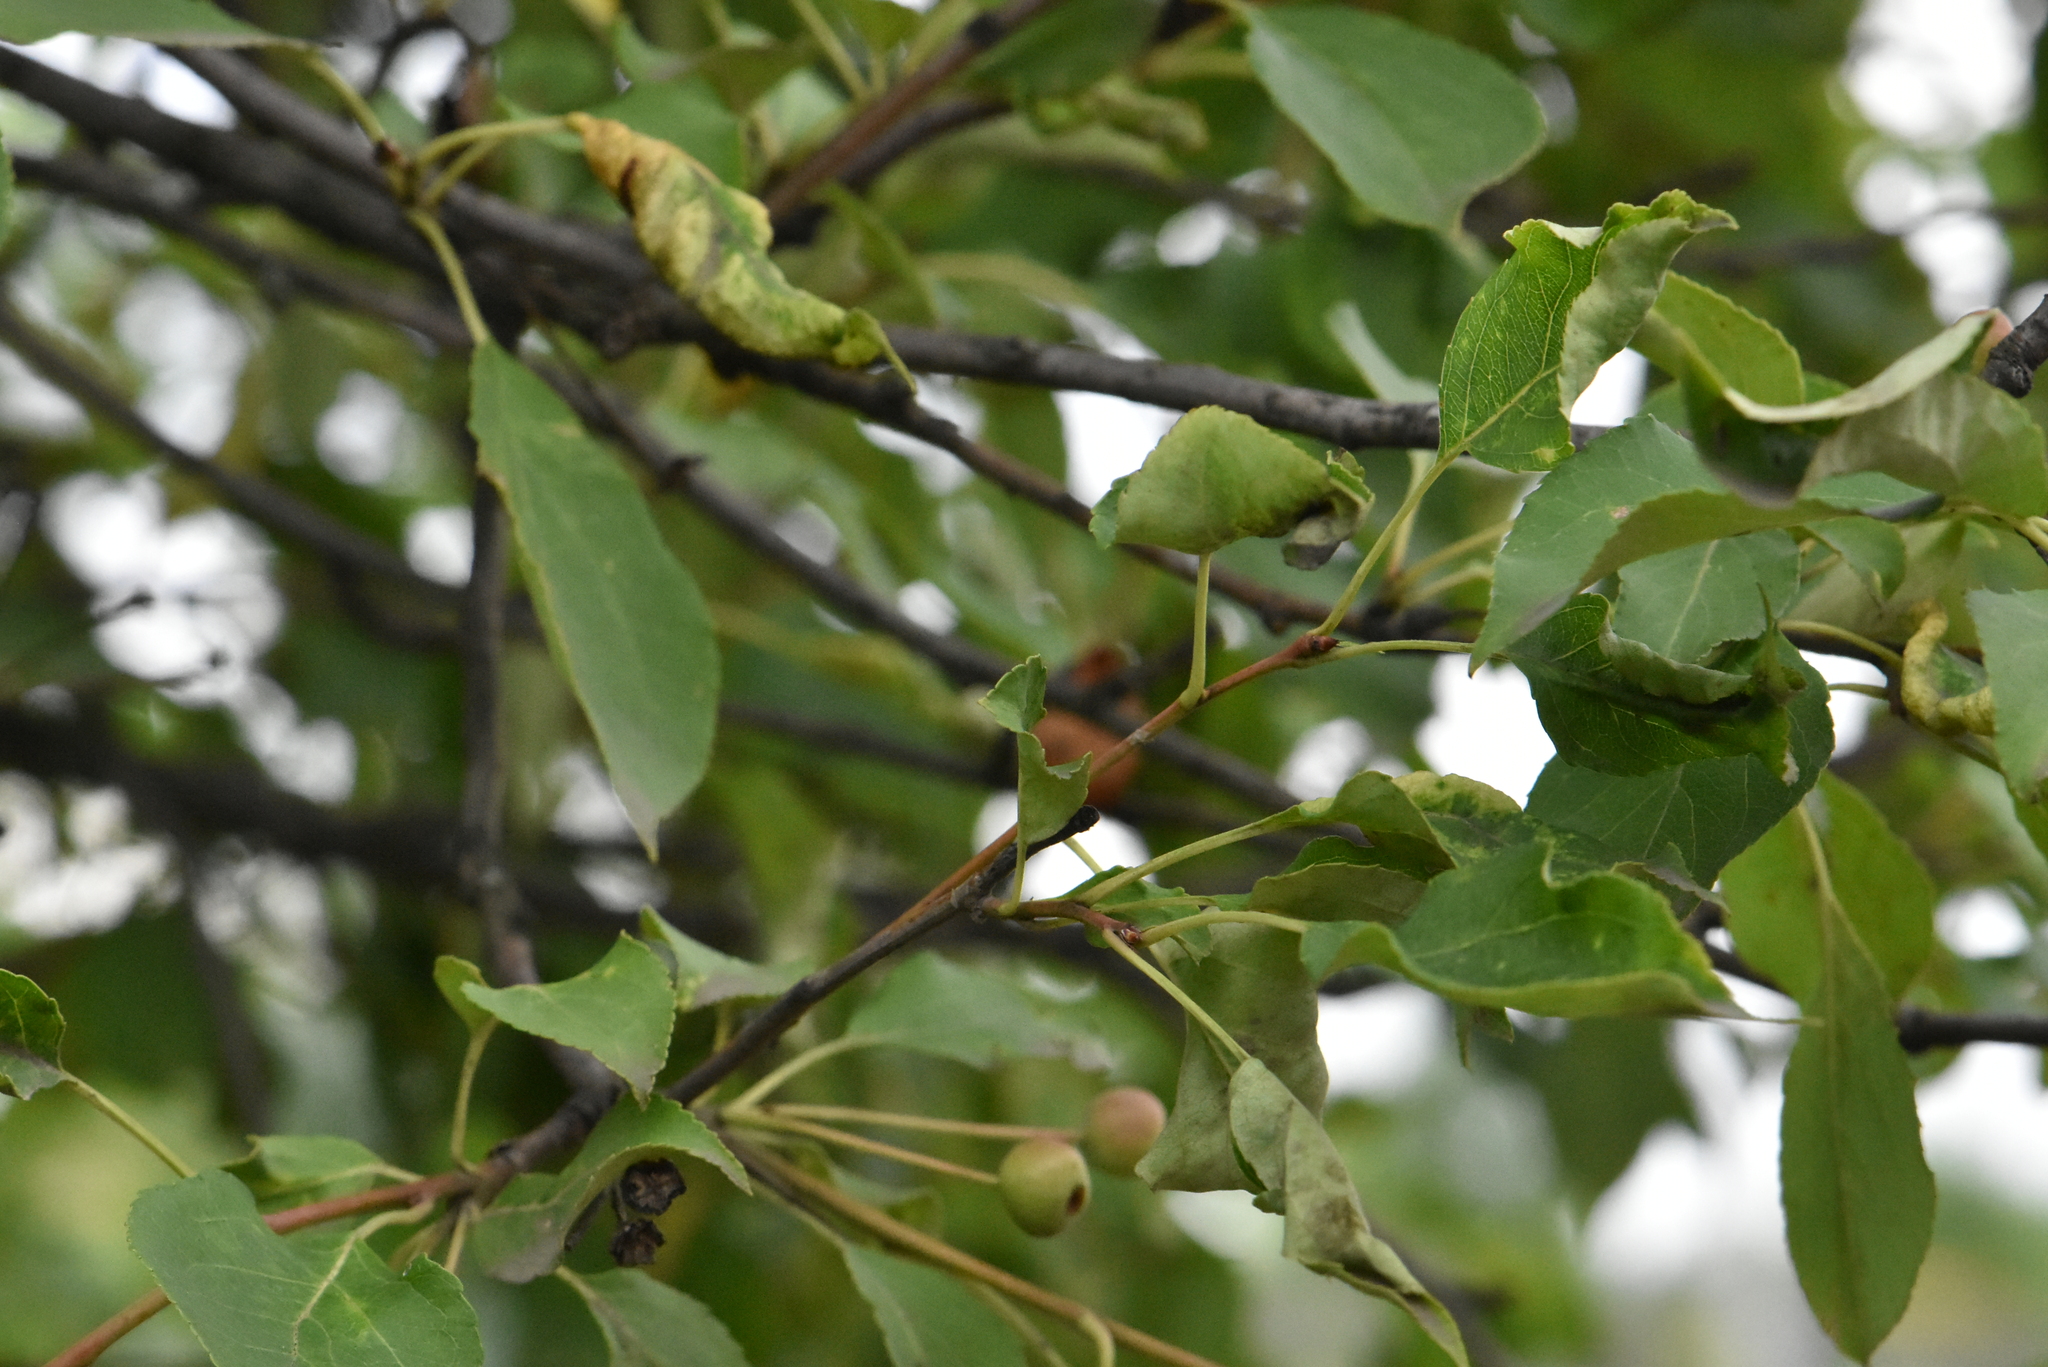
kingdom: Plantae
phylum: Tracheophyta
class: Magnoliopsida
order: Rosales
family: Rosaceae
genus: Malus
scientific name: Malus baccata
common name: Siberian crab
